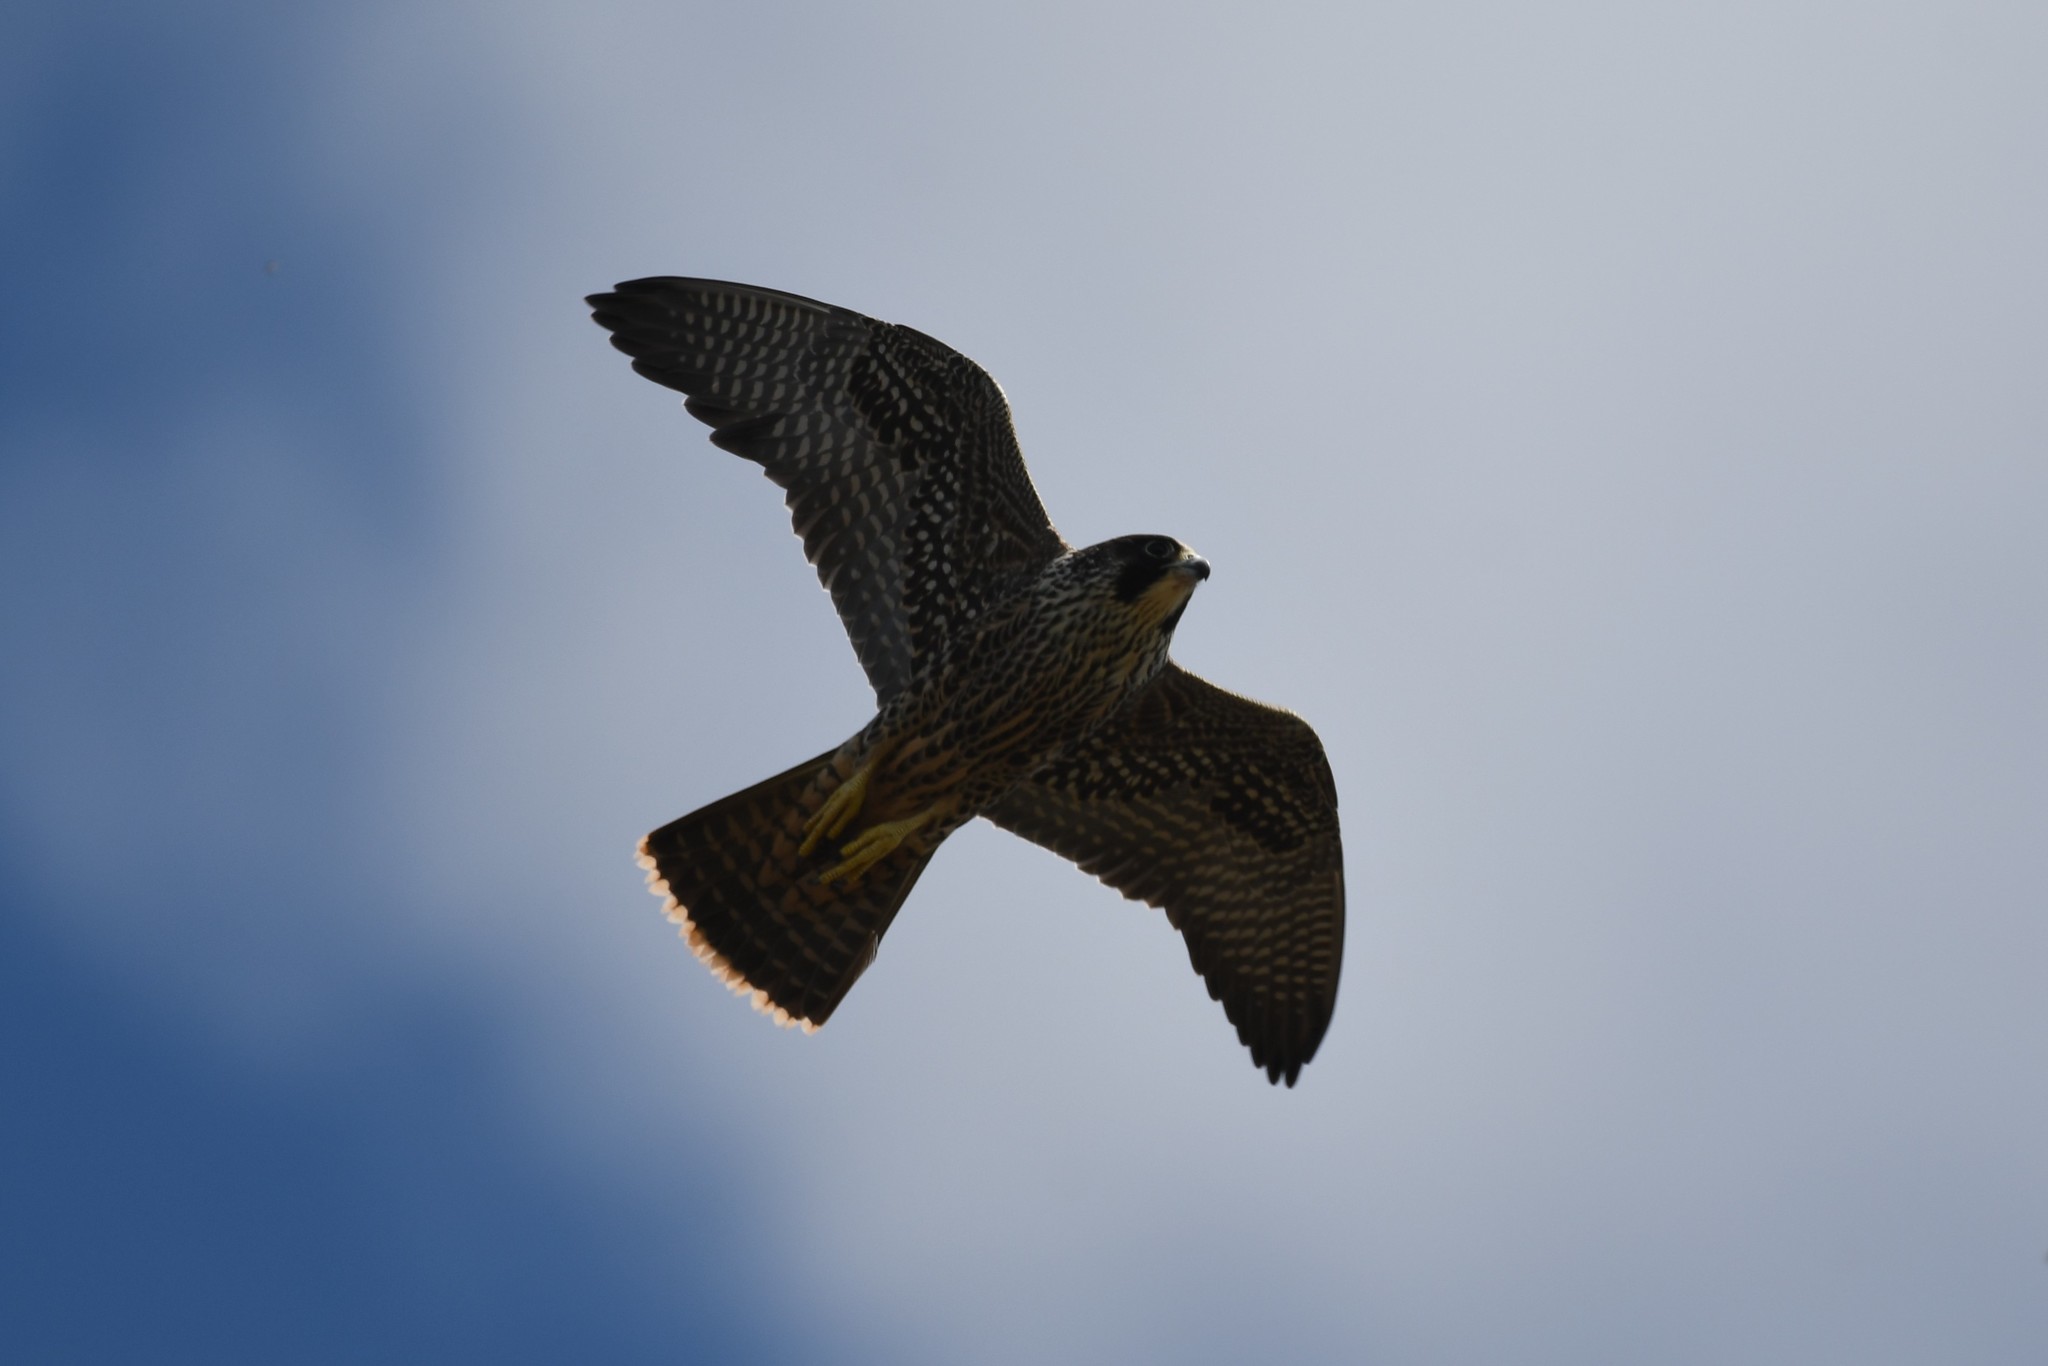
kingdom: Animalia
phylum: Chordata
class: Aves
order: Falconiformes
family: Falconidae
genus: Falco
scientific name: Falco peregrinus
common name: Peregrine falcon
